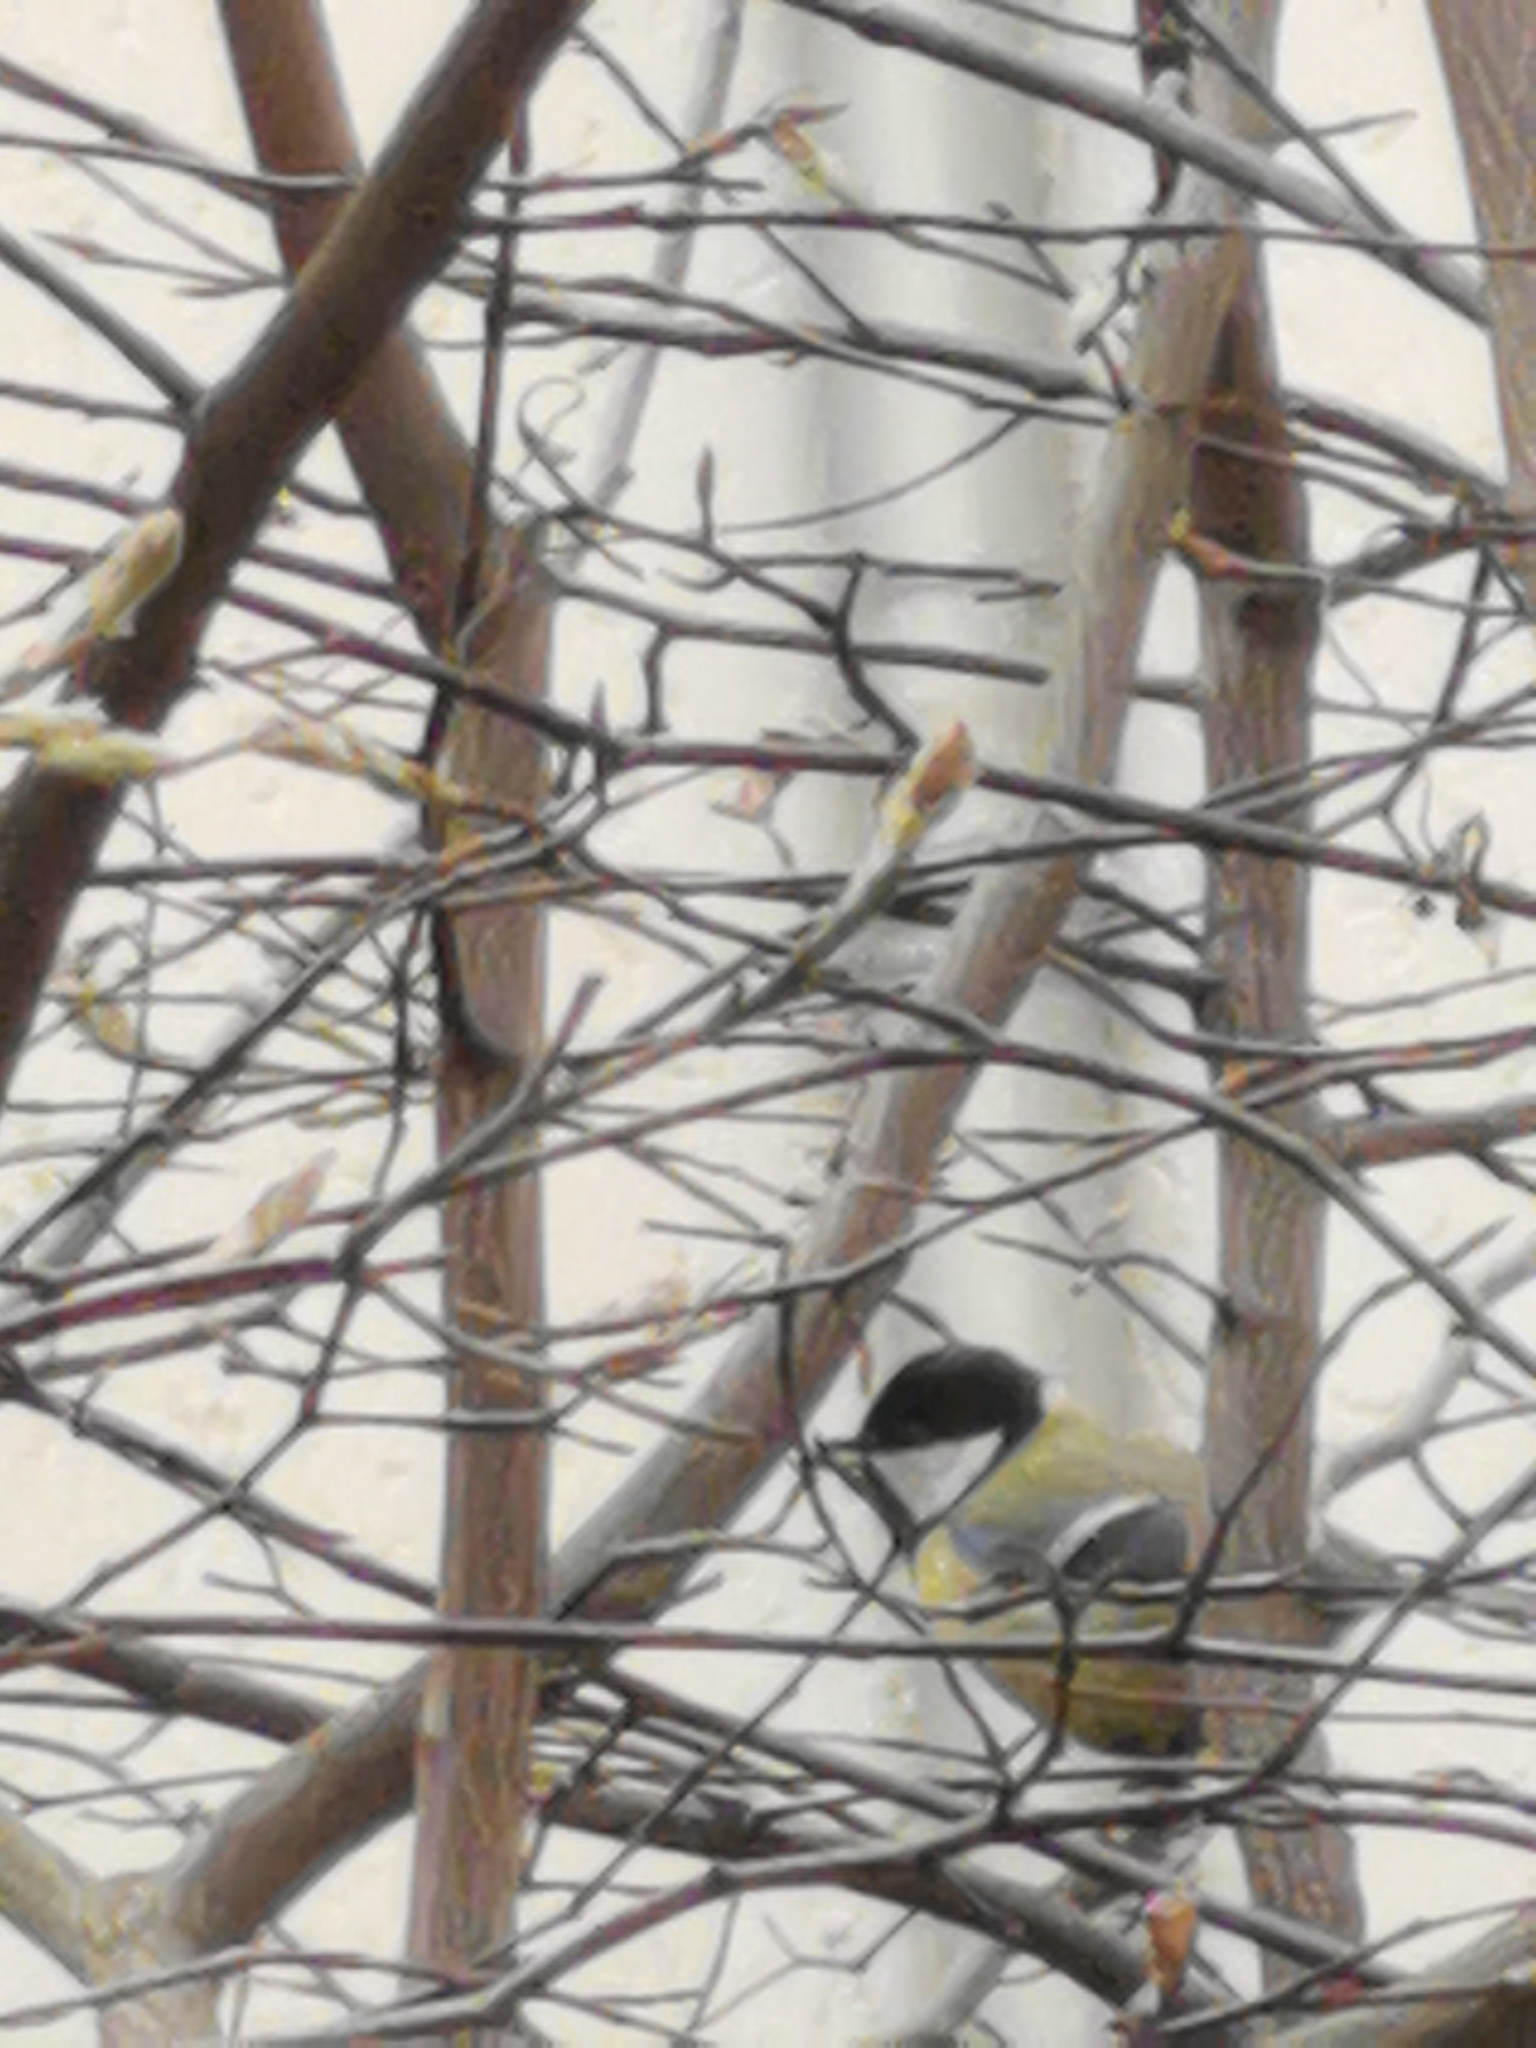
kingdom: Animalia
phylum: Chordata
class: Aves
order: Passeriformes
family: Paridae
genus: Parus
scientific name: Parus major
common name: Great tit
